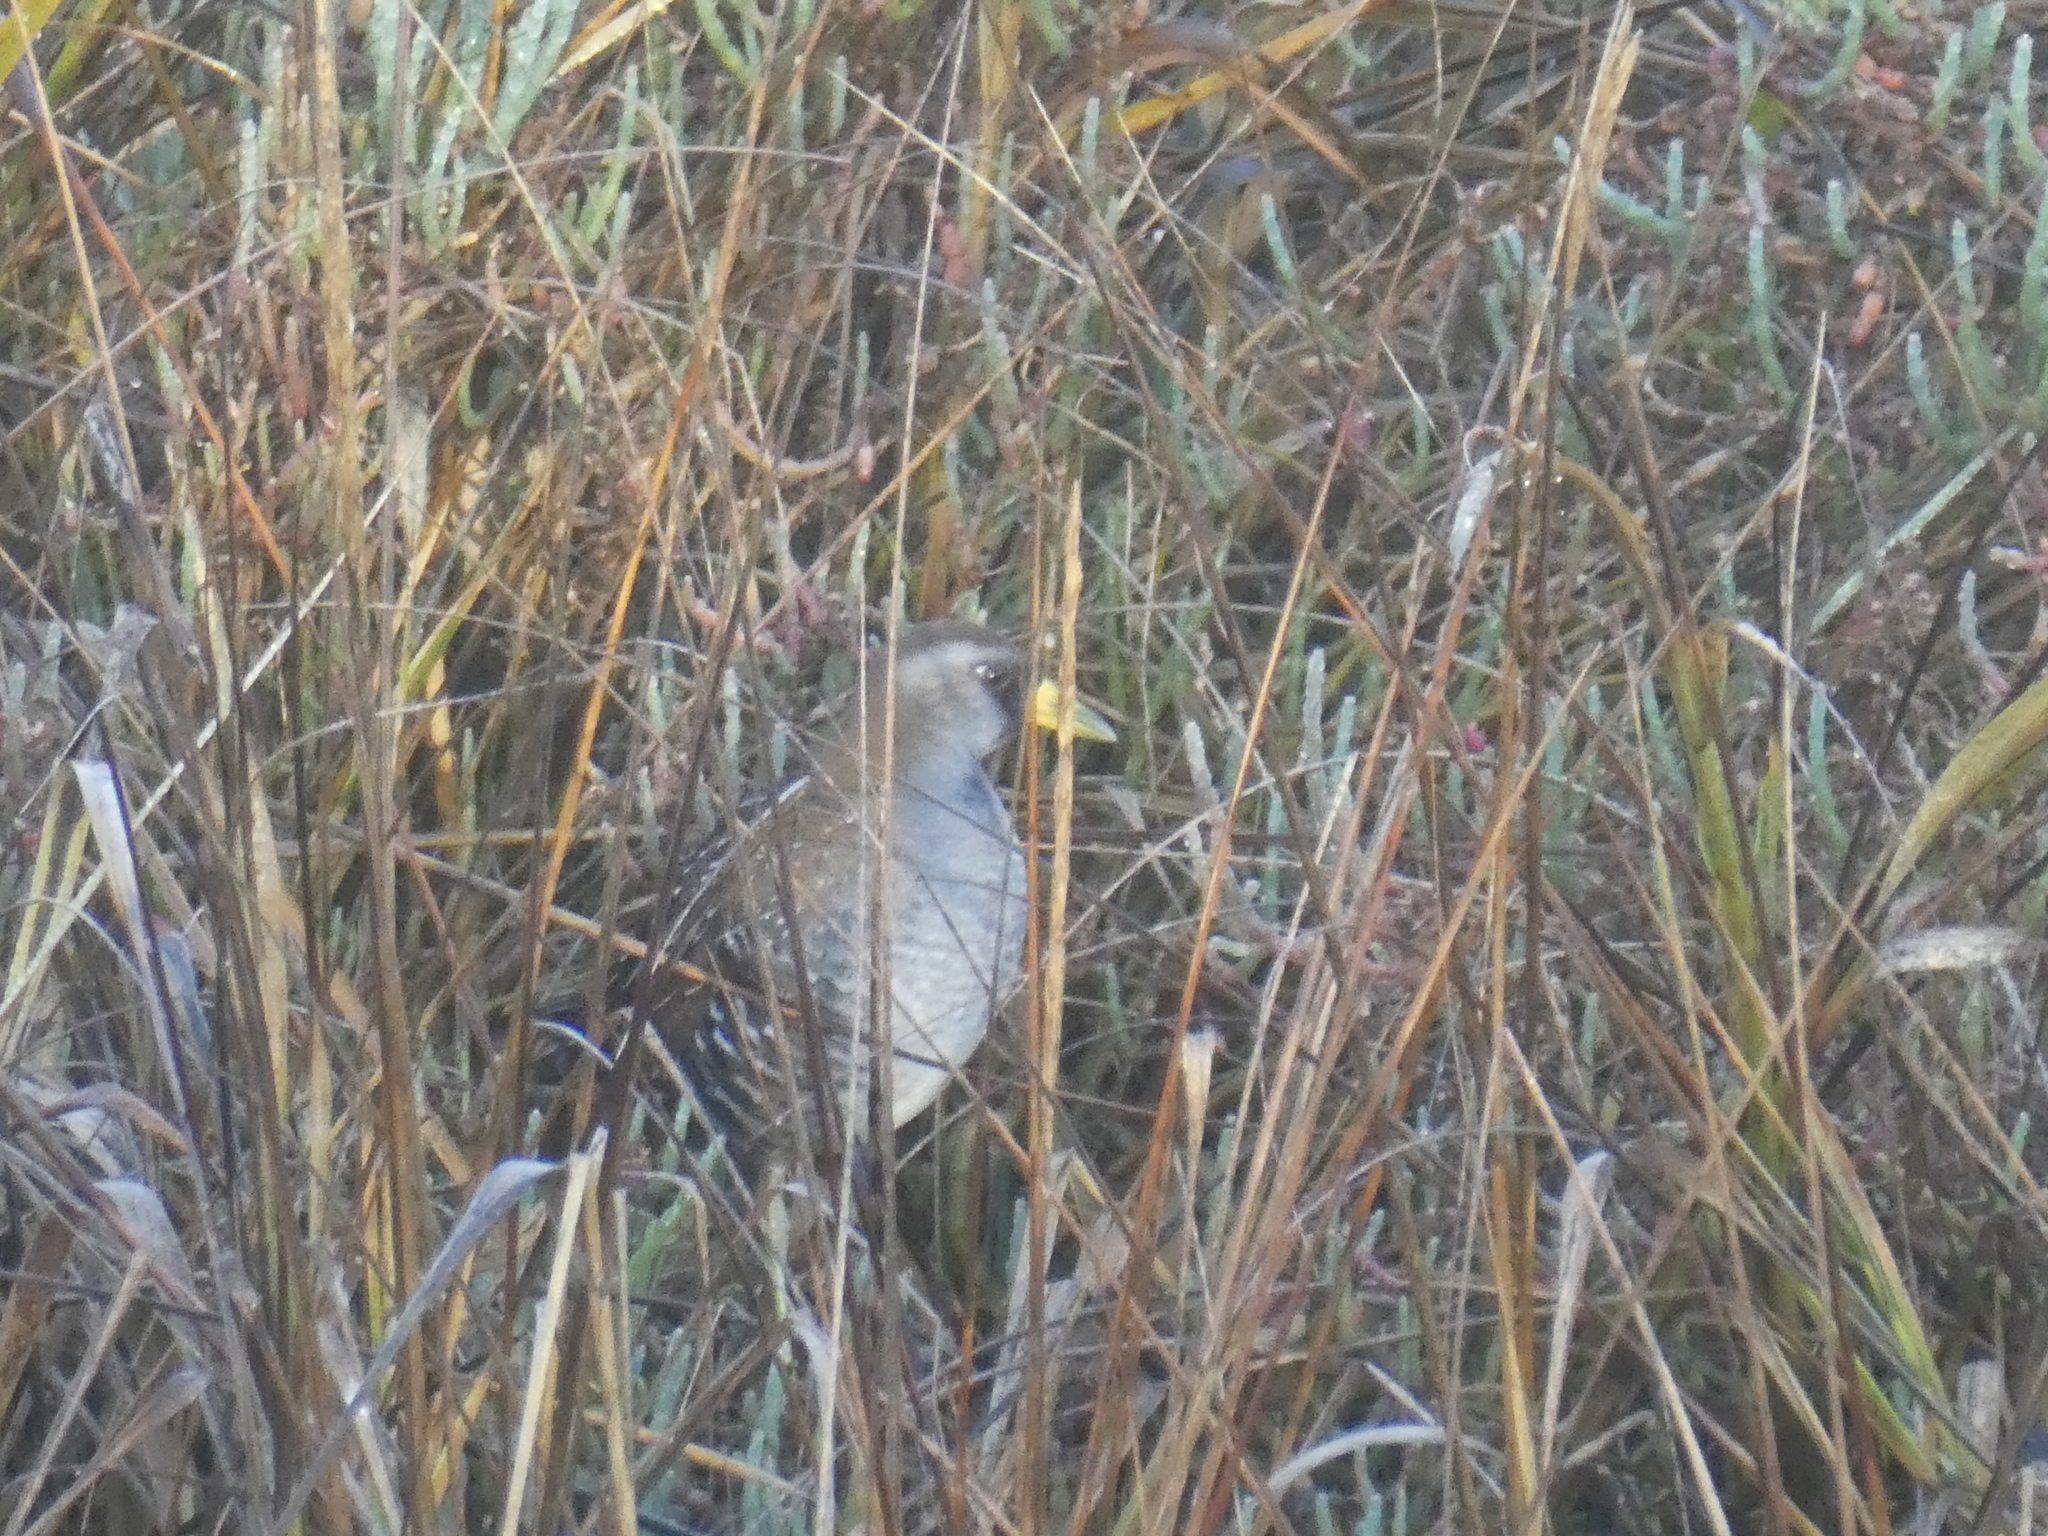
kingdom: Animalia
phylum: Chordata
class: Aves
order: Gruiformes
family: Rallidae
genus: Porzana
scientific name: Porzana carolina
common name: Sora
